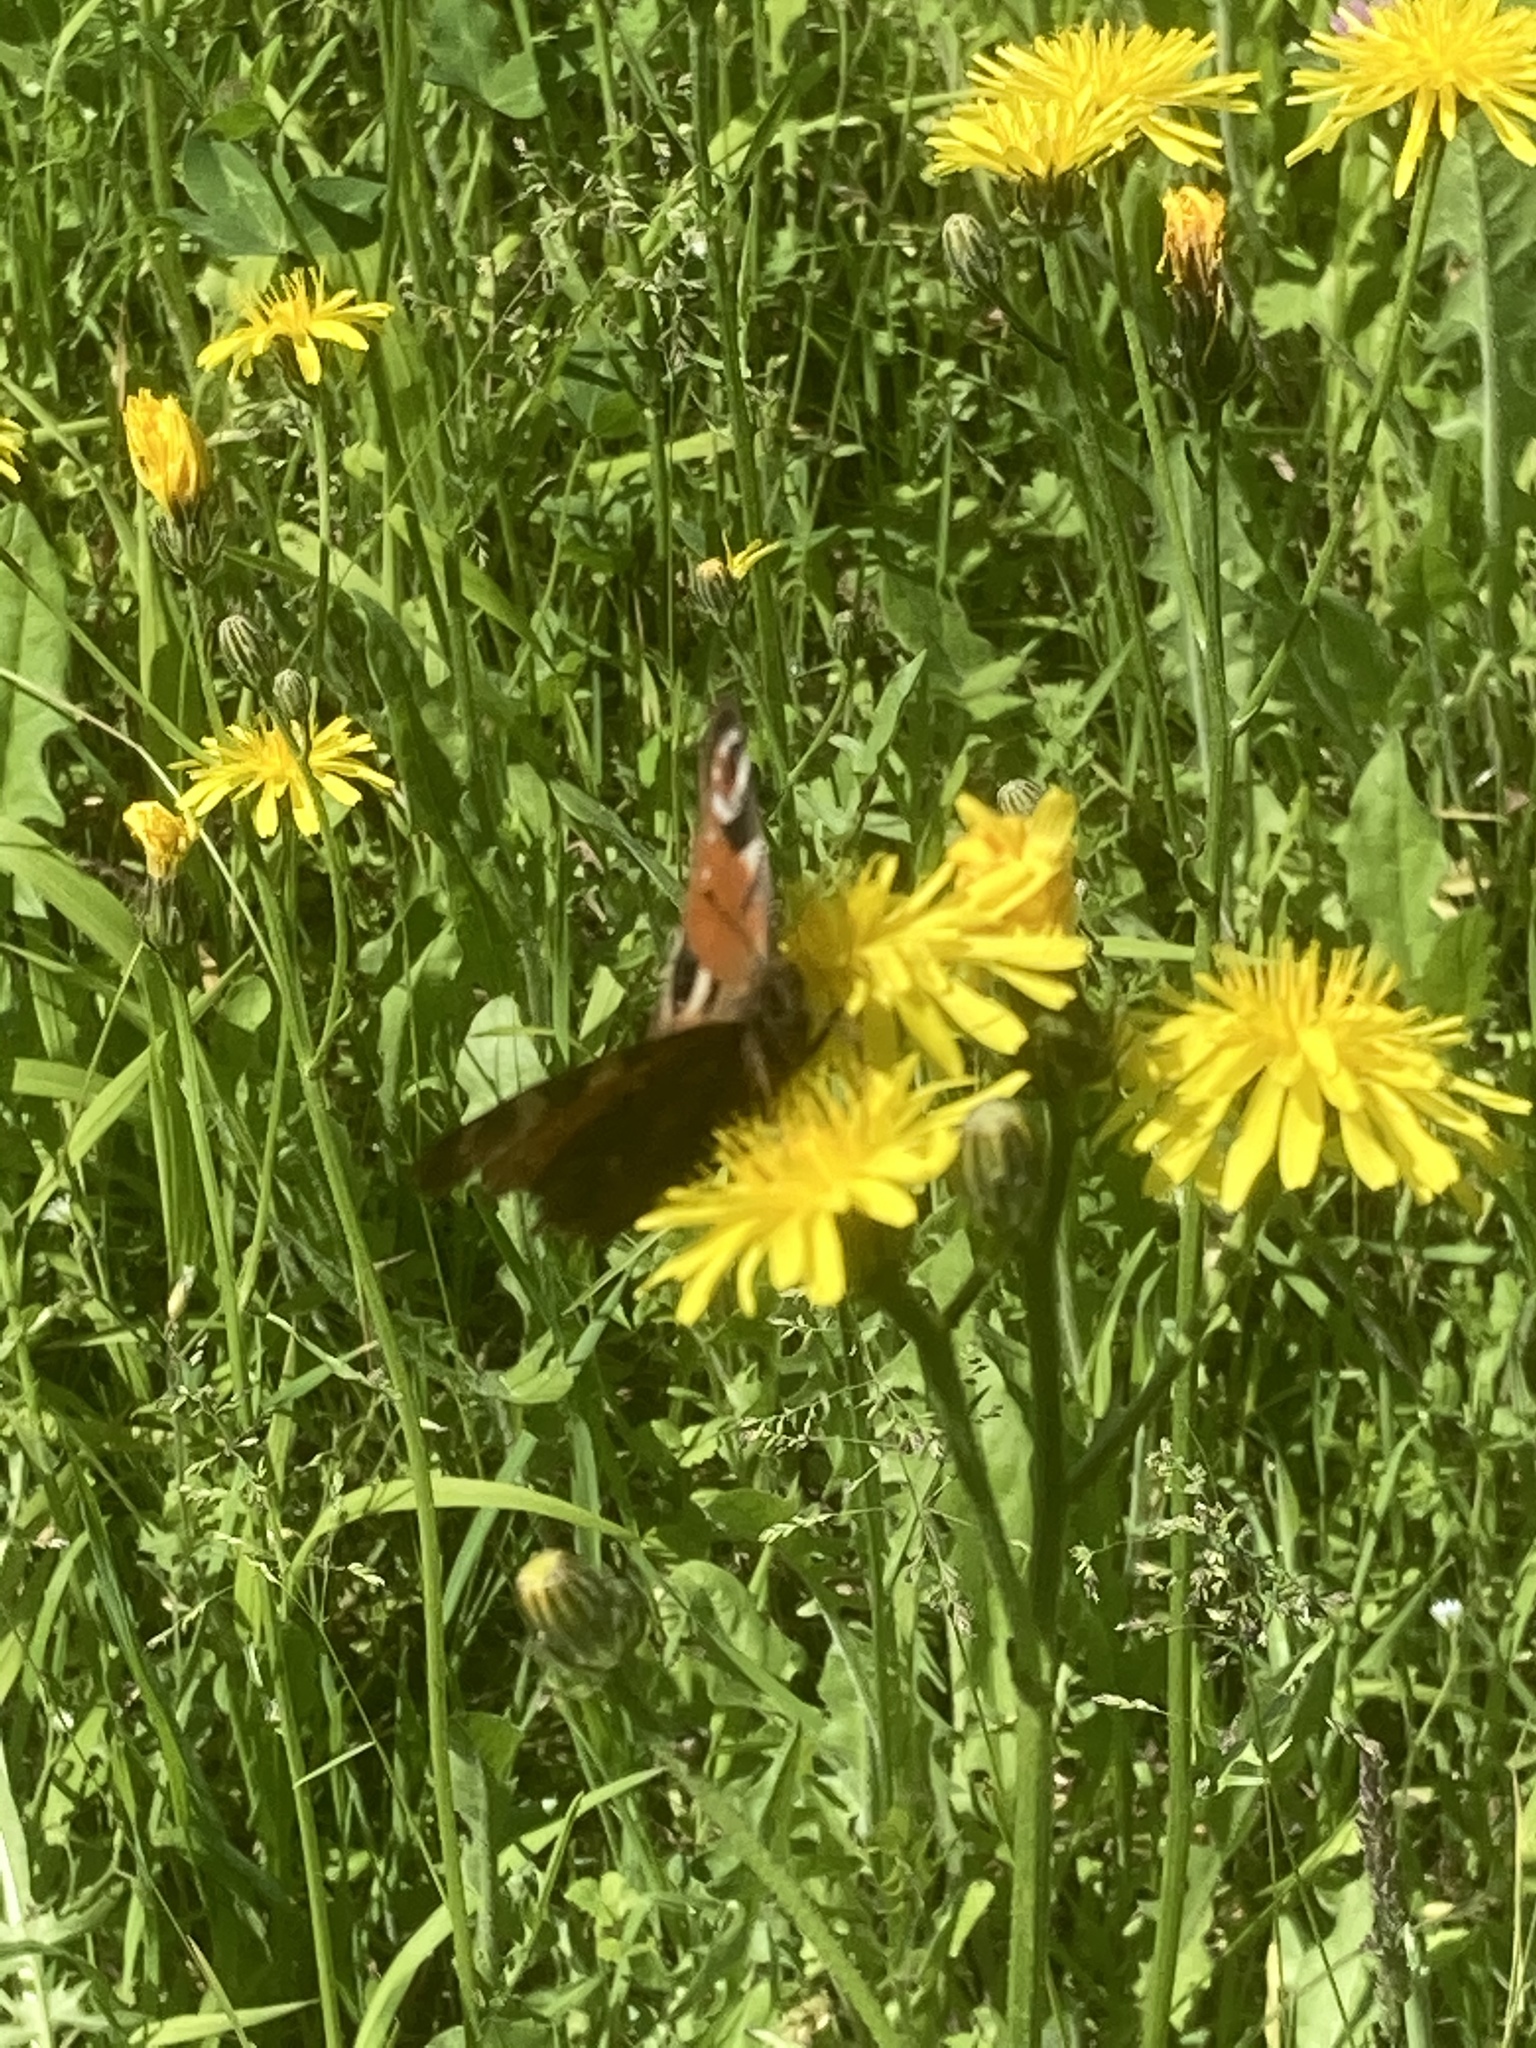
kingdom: Animalia
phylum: Arthropoda
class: Insecta
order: Lepidoptera
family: Nymphalidae
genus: Aglais
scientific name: Aglais io
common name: Peacock
